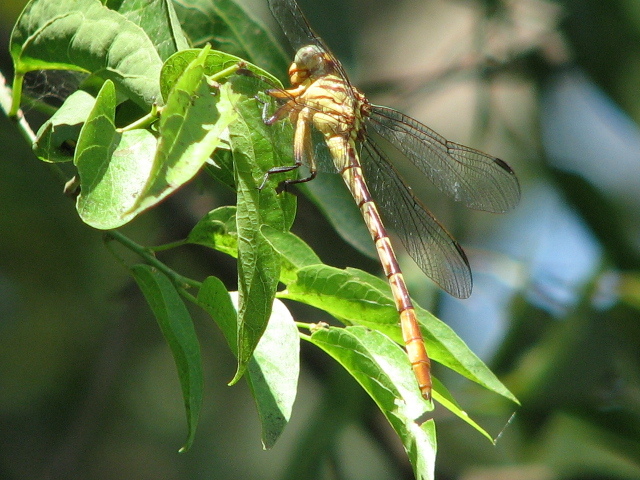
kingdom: Animalia
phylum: Arthropoda
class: Insecta
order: Odonata
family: Gomphidae
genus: Stylurus
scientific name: Stylurus plagiatus
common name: Russet-tipped clubtail
